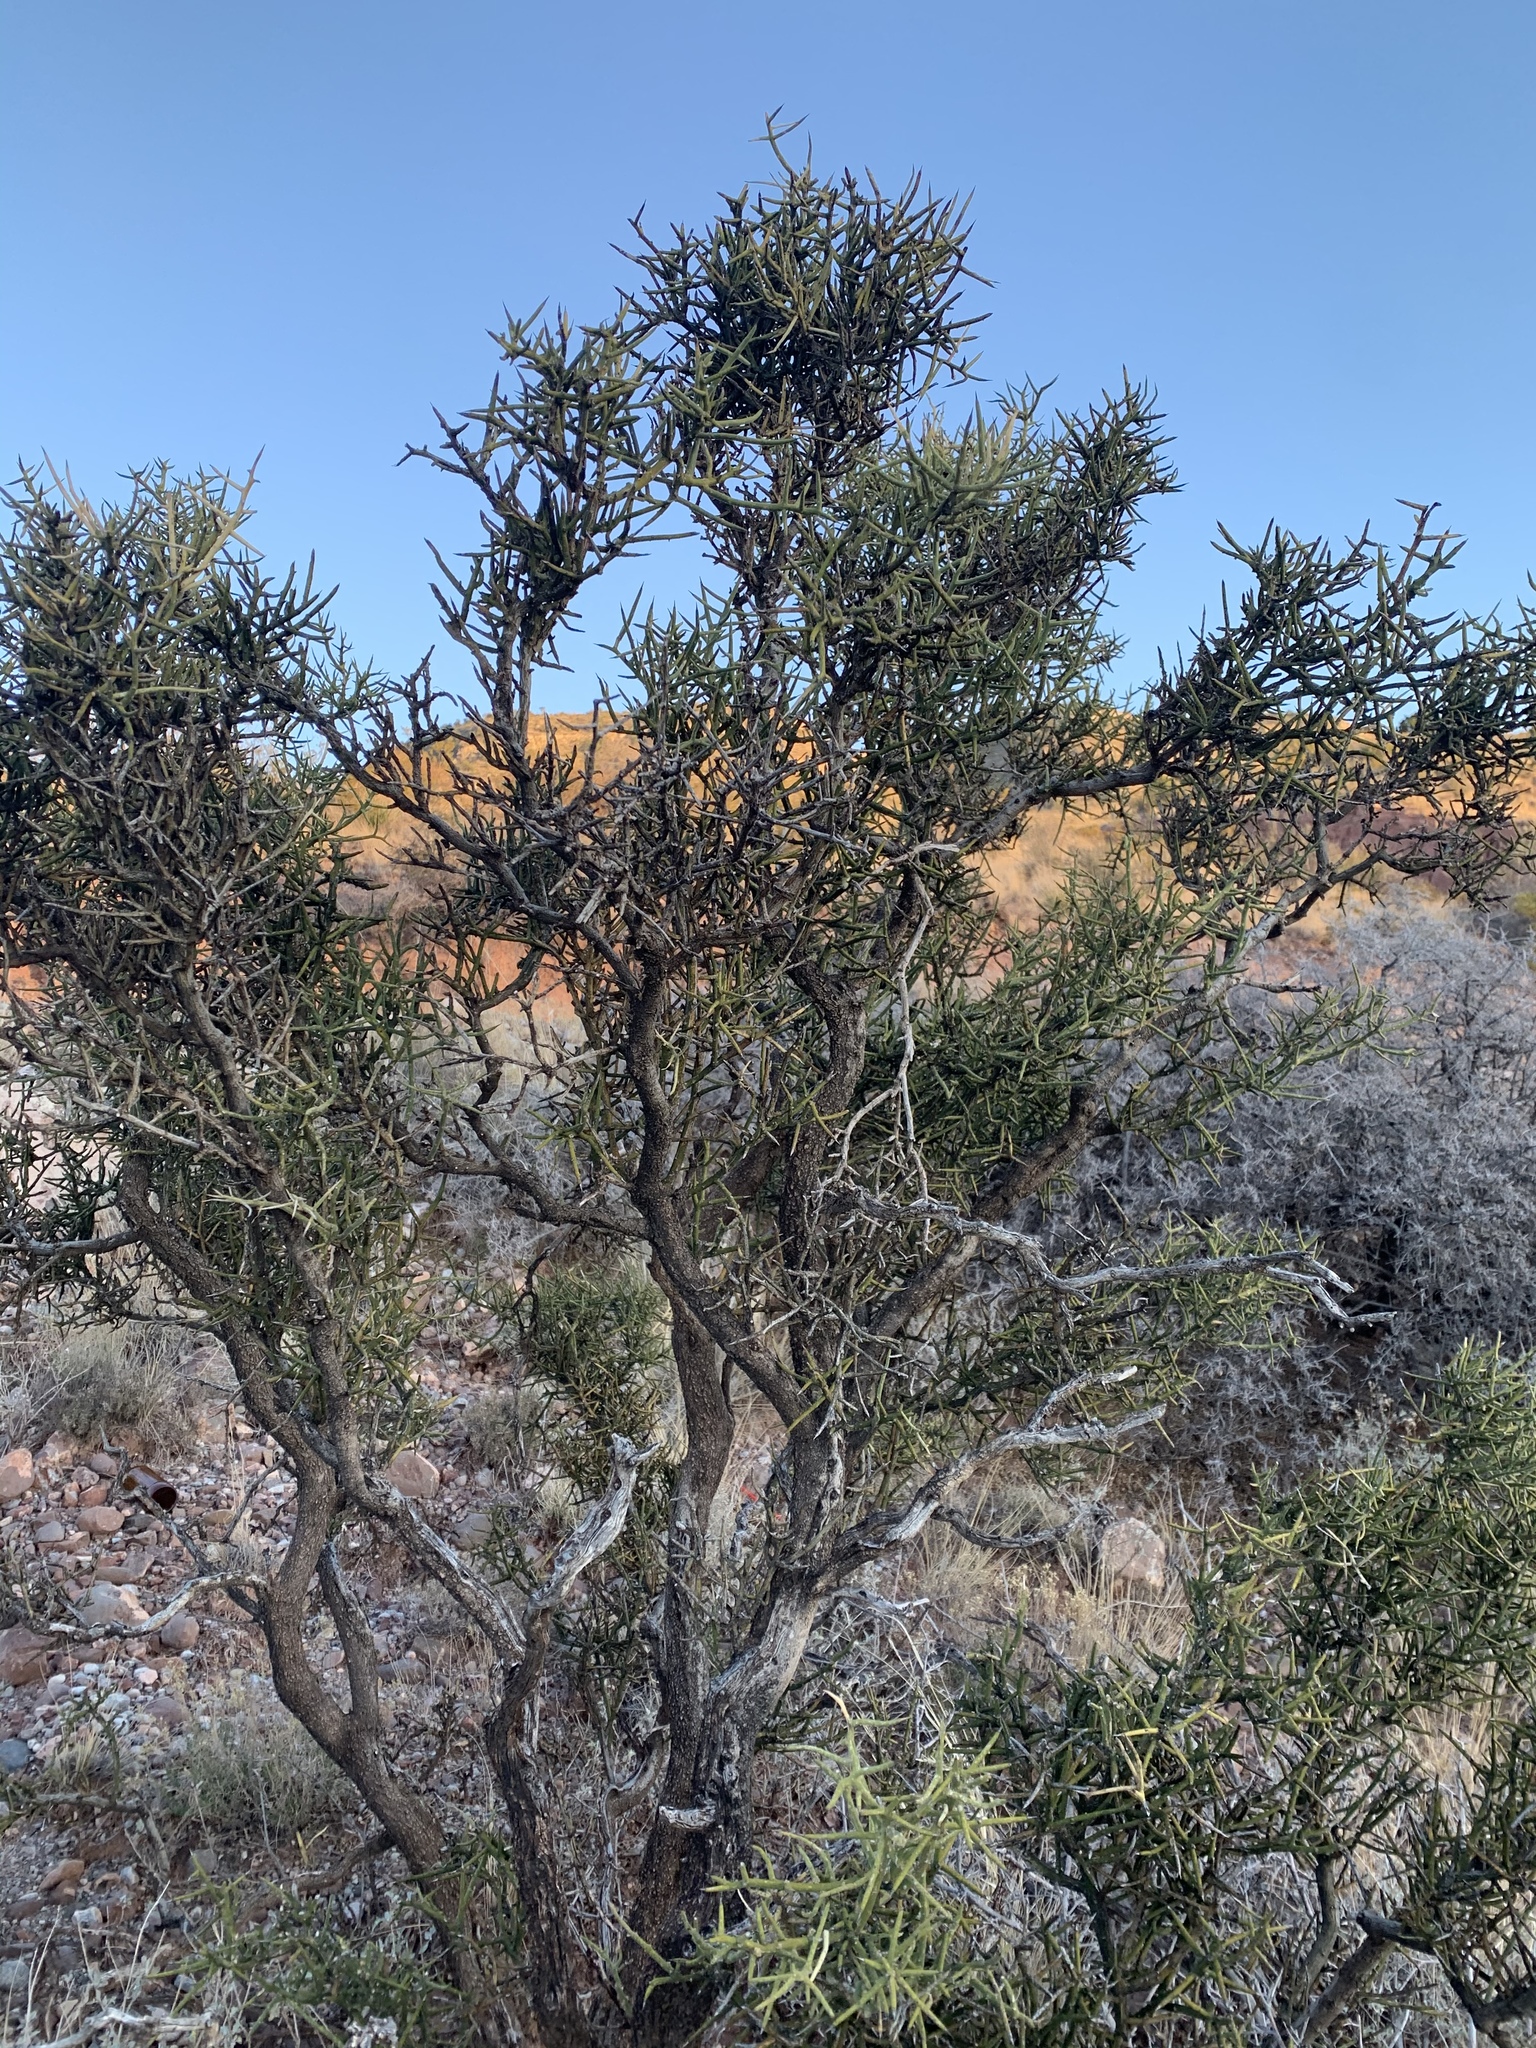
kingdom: Plantae
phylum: Tracheophyta
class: Magnoliopsida
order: Brassicales
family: Koeberliniaceae
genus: Koeberlinia
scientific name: Koeberlinia spinosa
